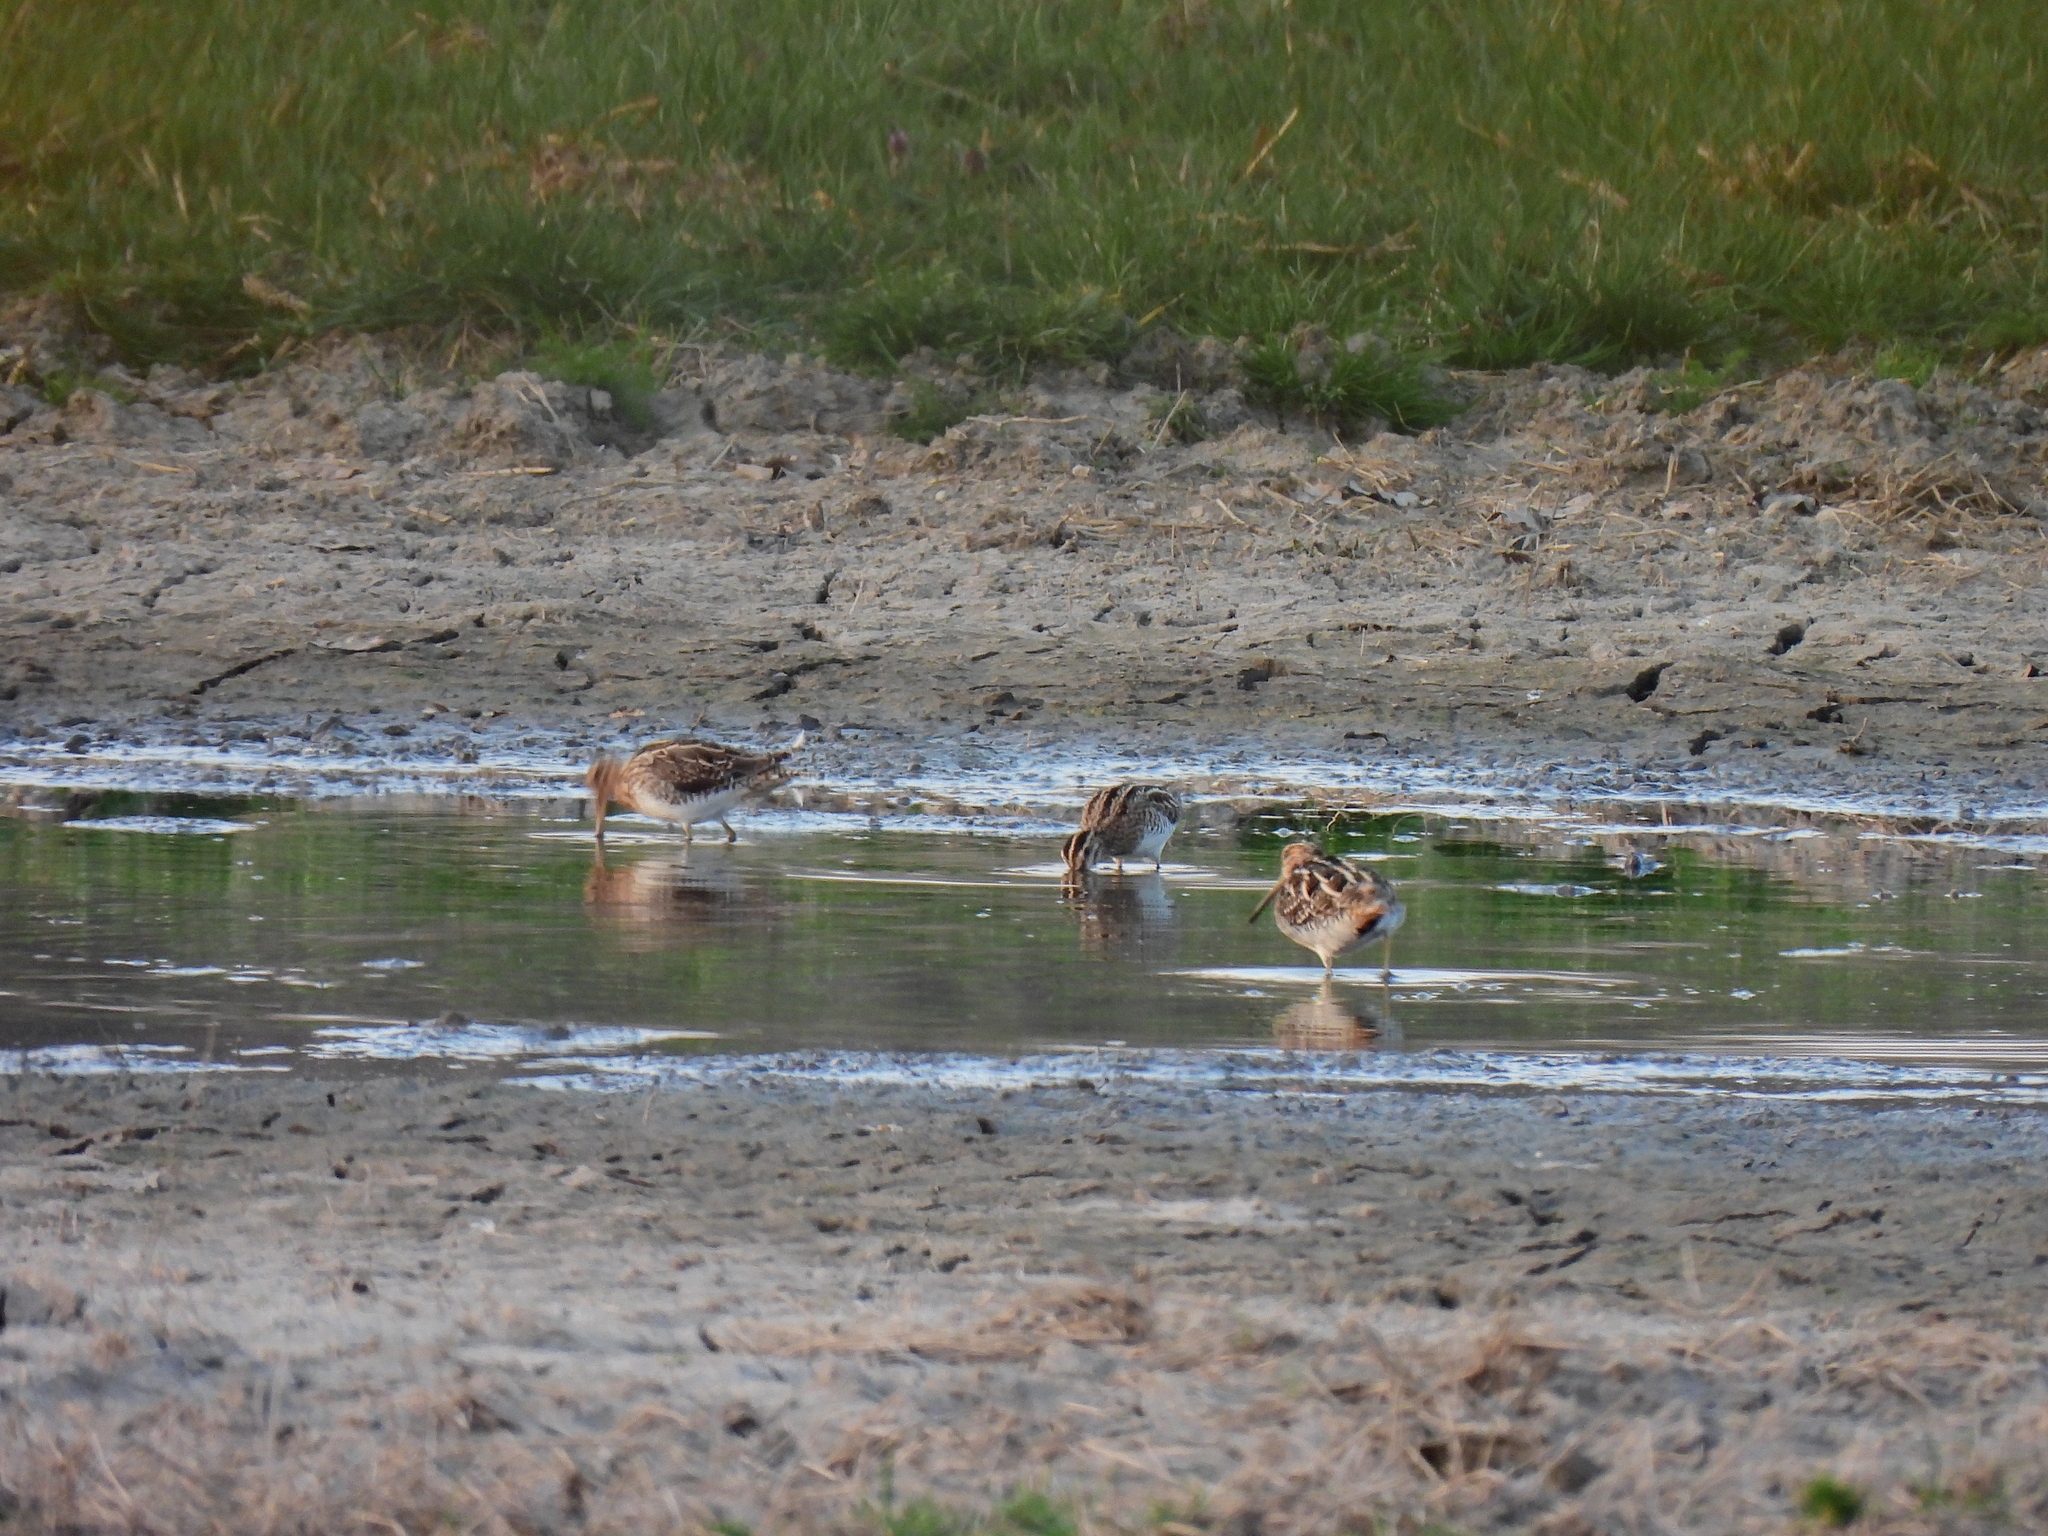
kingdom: Animalia
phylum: Chordata
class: Aves
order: Charadriiformes
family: Scolopacidae
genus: Gallinago
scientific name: Gallinago gallinago
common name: Common snipe
